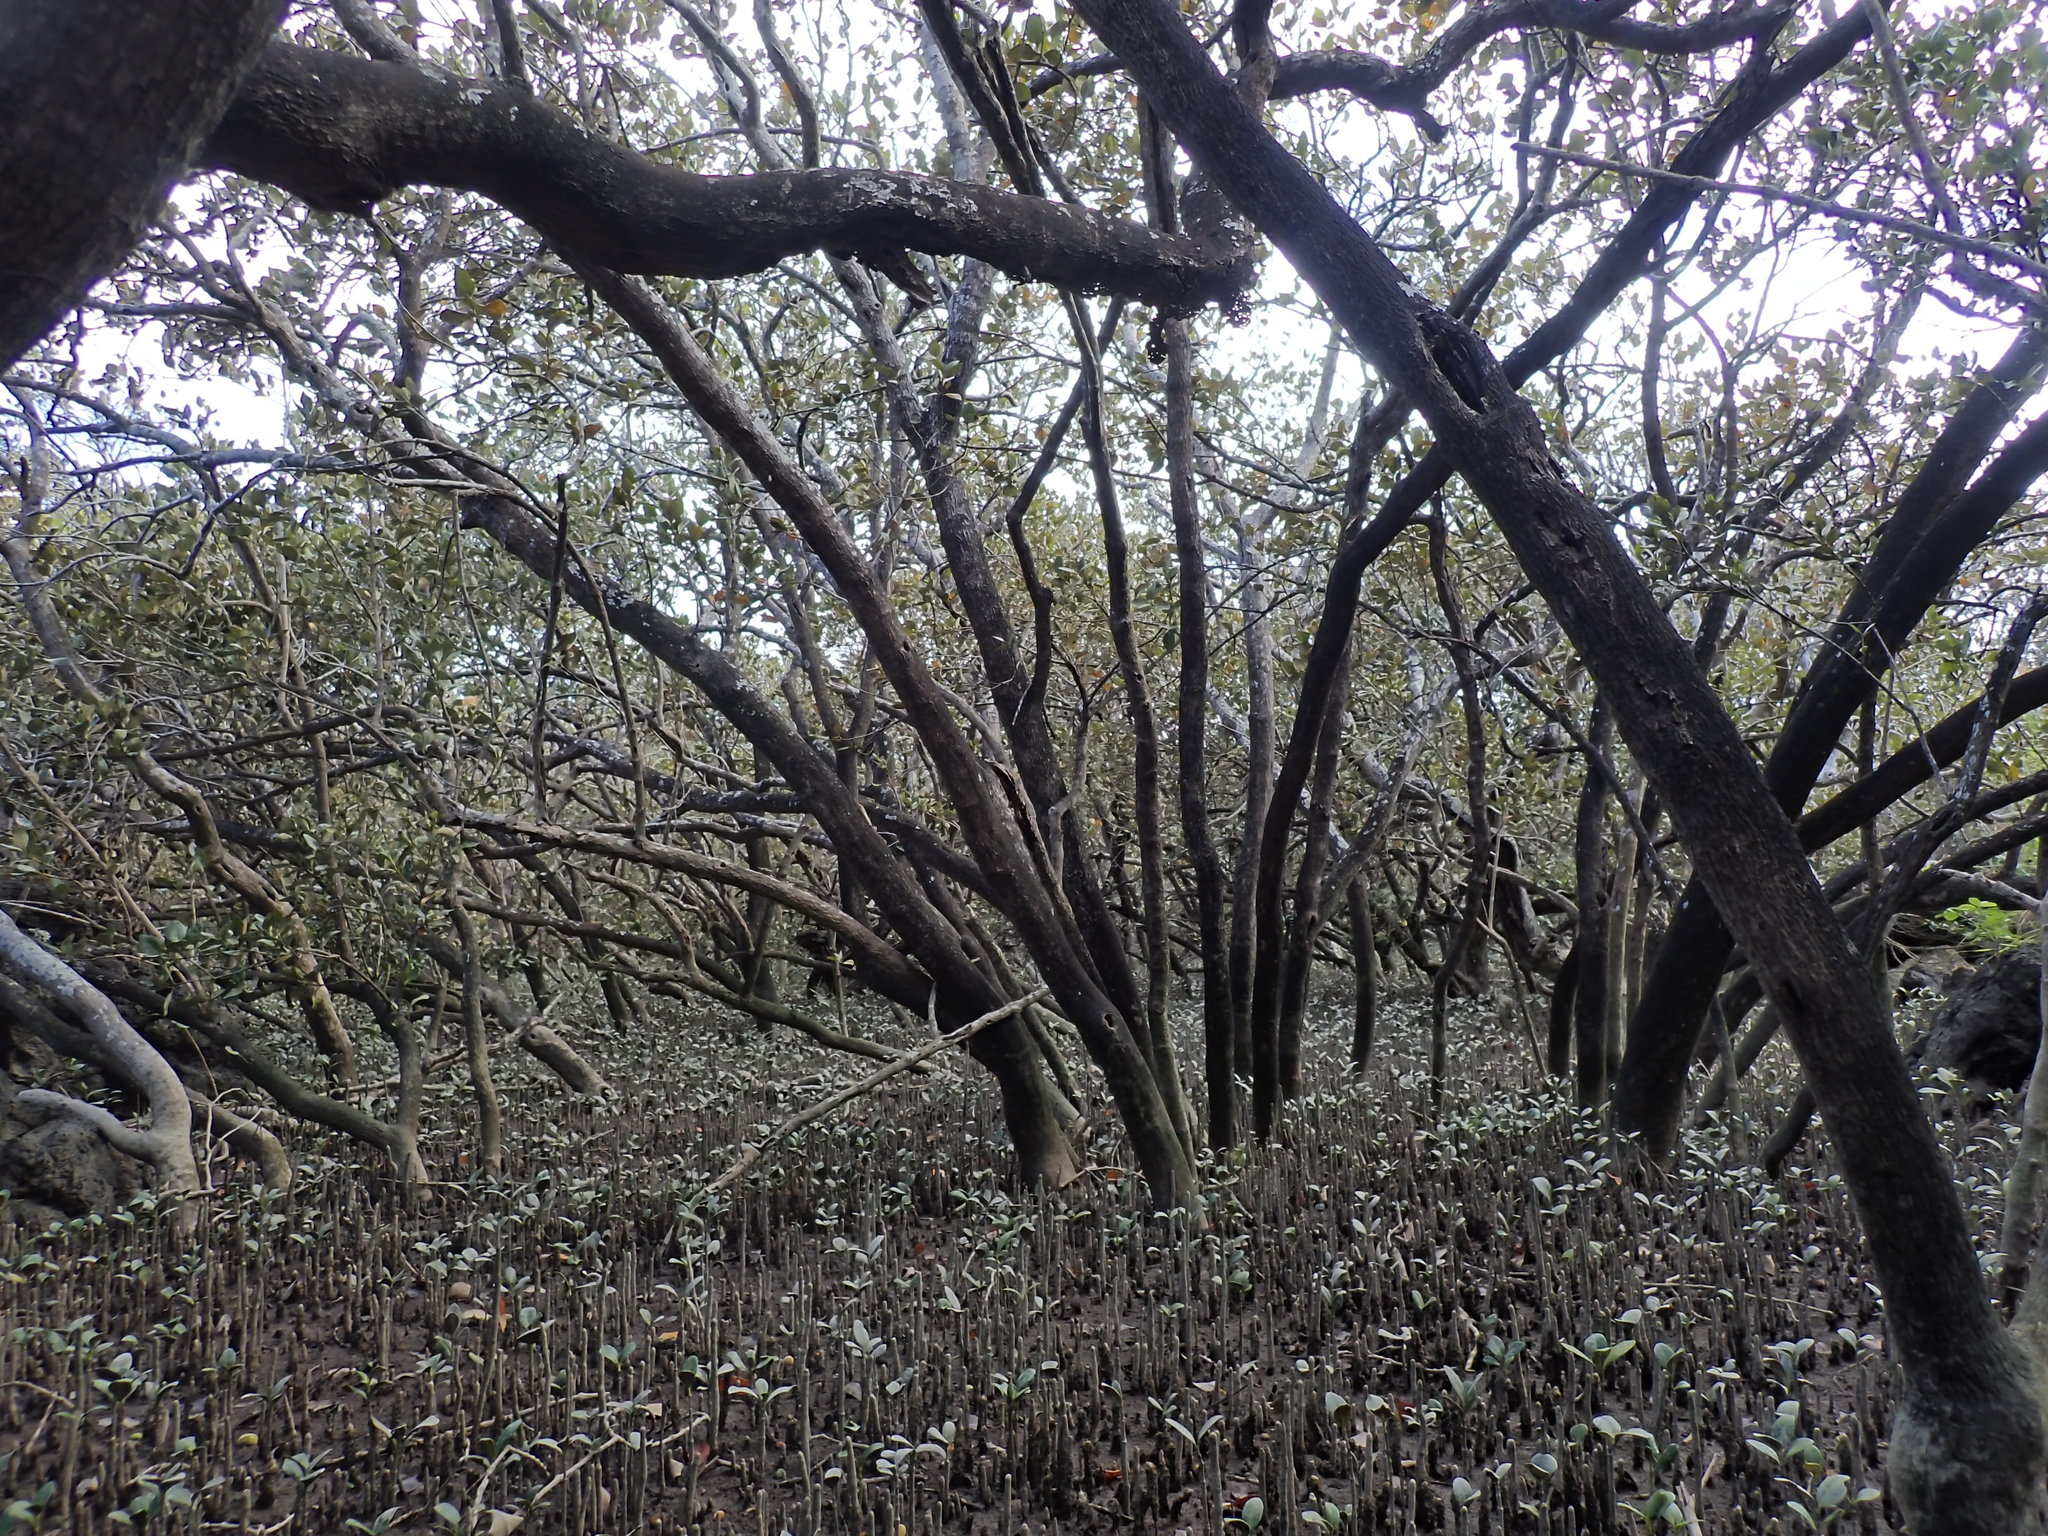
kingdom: Plantae
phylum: Tracheophyta
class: Magnoliopsida
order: Lamiales
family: Acanthaceae
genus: Avicennia
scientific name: Avicennia marina
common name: Gray mangrove
